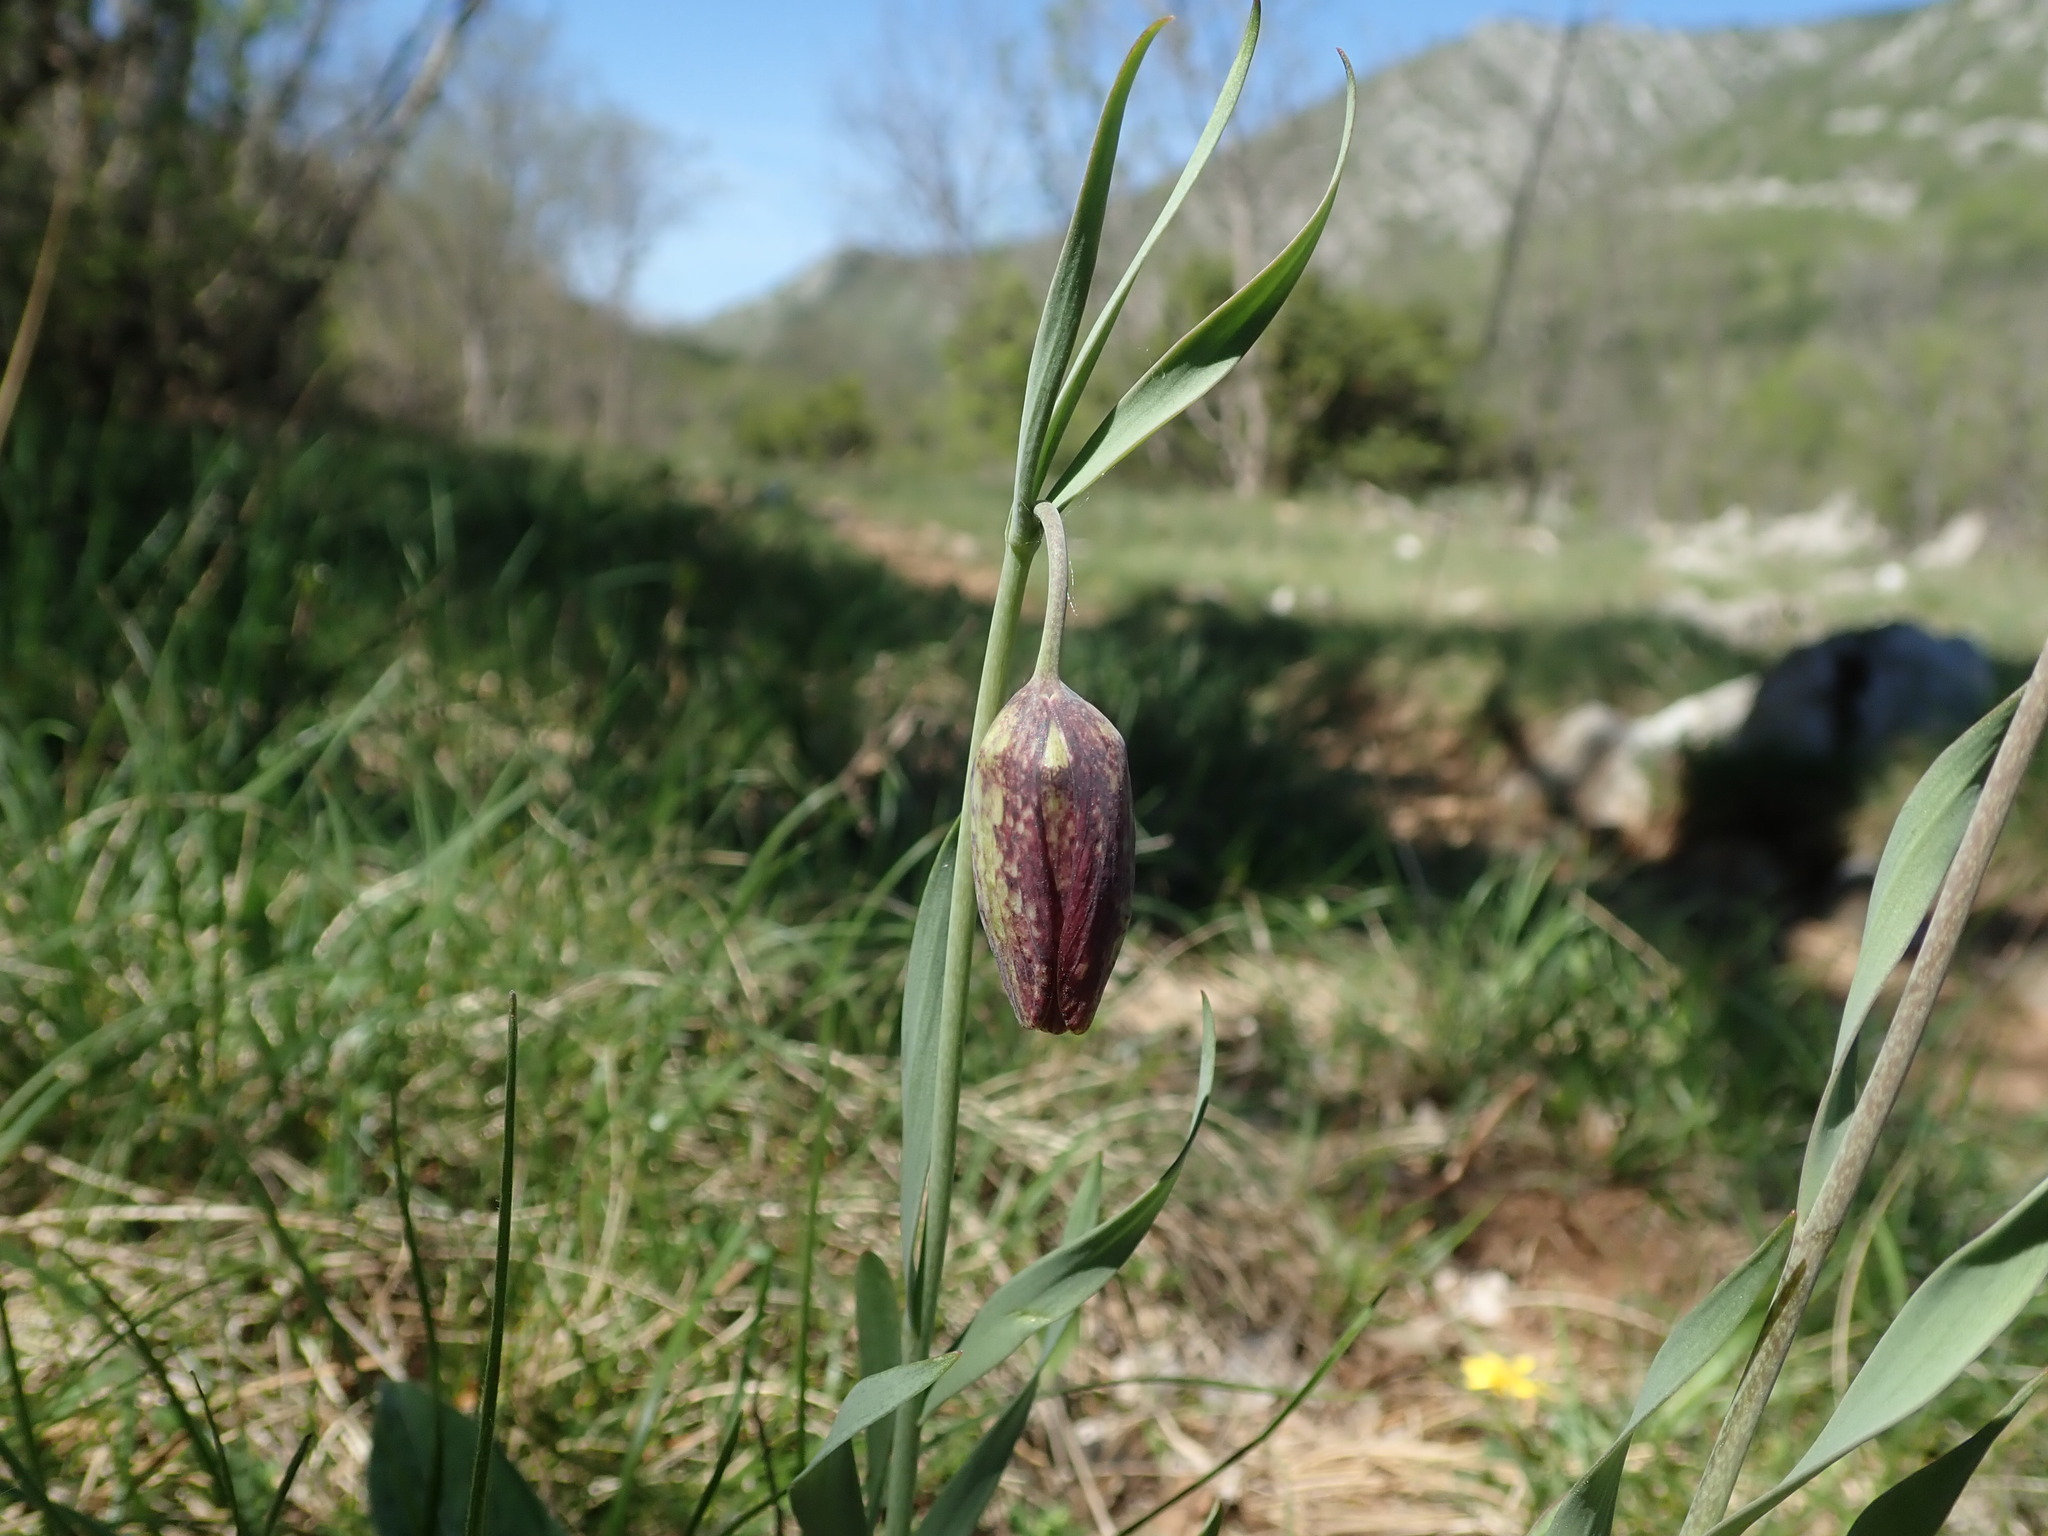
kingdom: Plantae
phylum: Tracheophyta
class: Liliopsida
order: Liliales
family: Liliaceae
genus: Fritillaria
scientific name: Fritillaria montana
